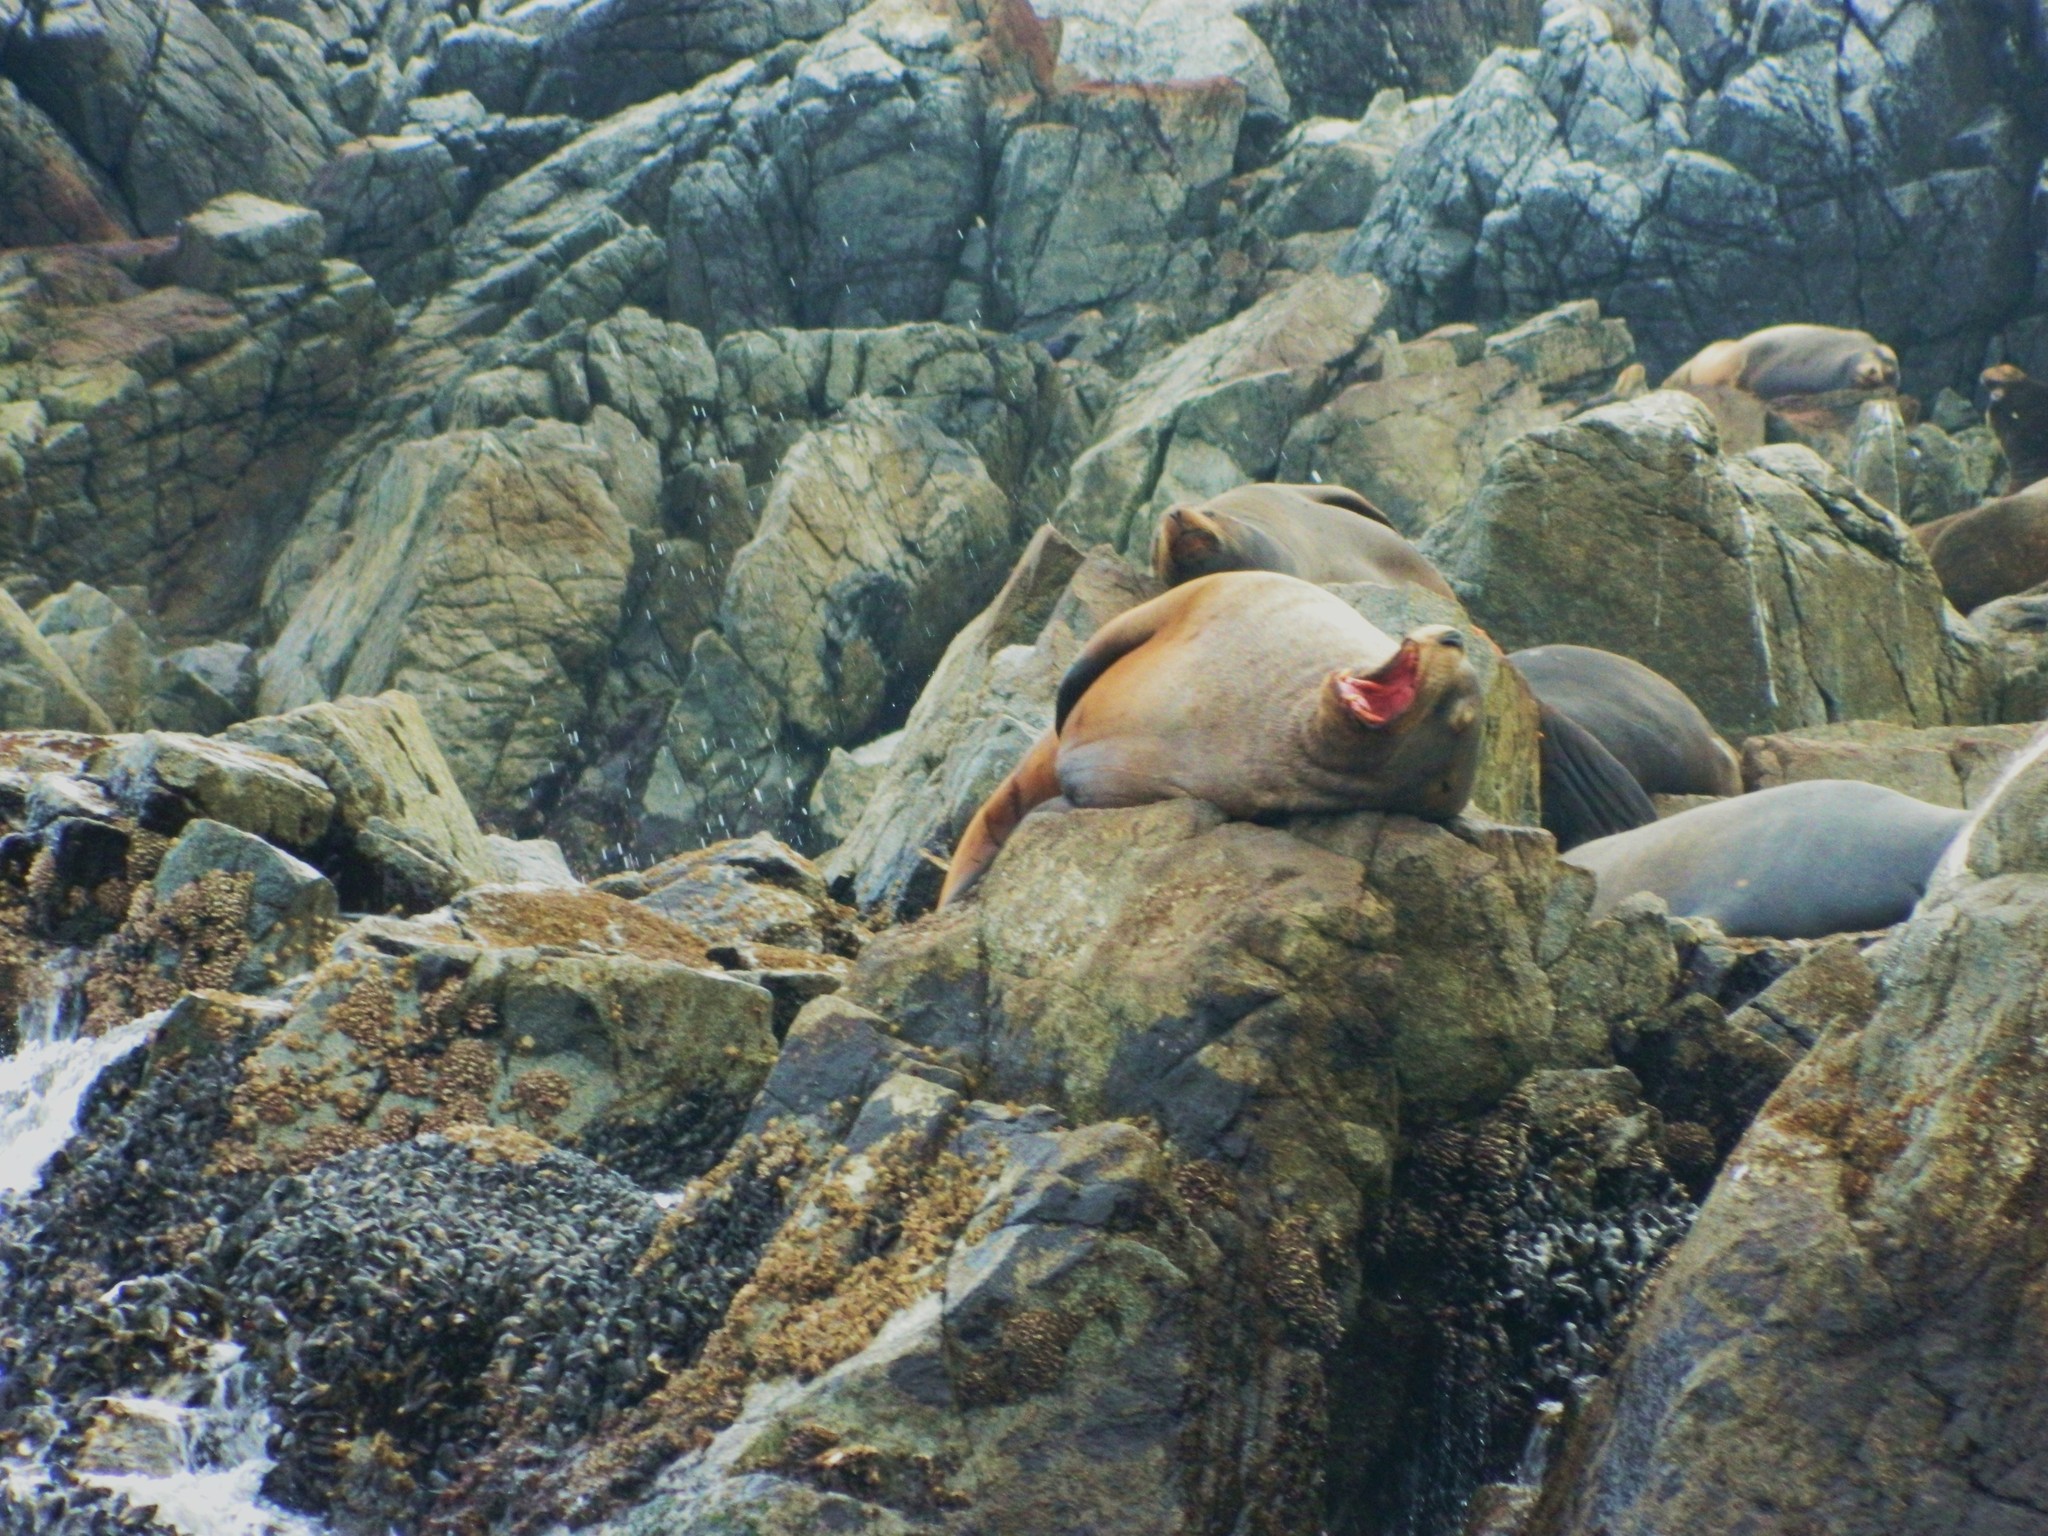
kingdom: Animalia
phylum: Chordata
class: Mammalia
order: Carnivora
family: Otariidae
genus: Eumetopias
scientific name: Eumetopias jubatus
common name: Steller sea lion
